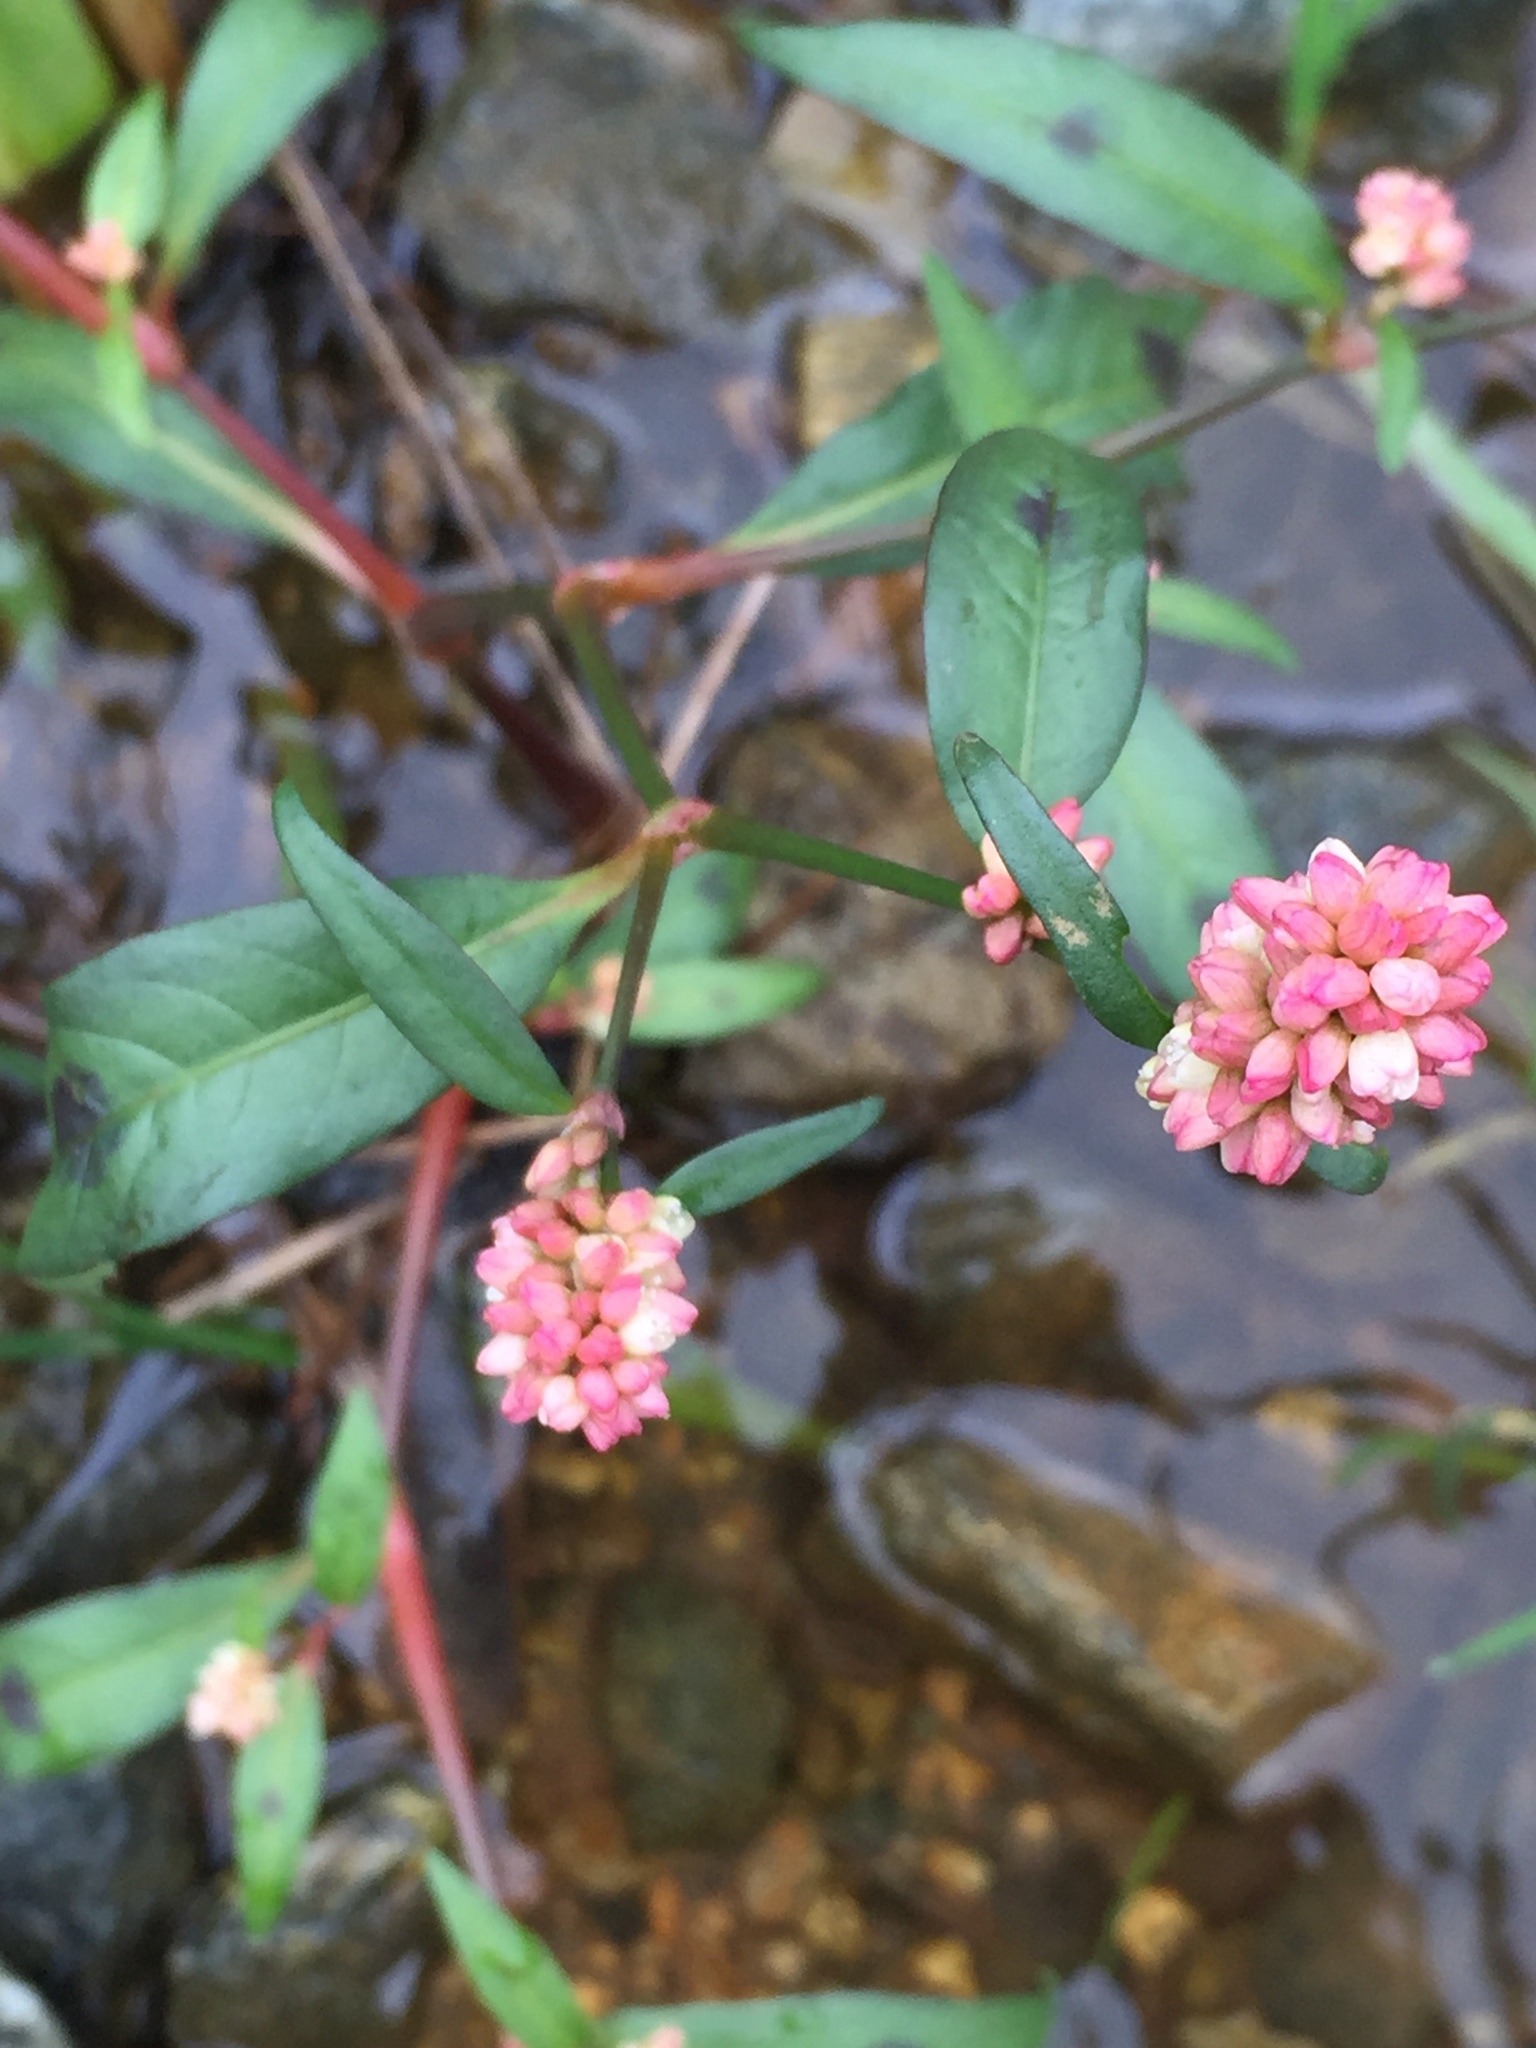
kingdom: Plantae
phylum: Tracheophyta
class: Magnoliopsida
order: Caryophyllales
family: Polygonaceae
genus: Persicaria
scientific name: Persicaria maculosa
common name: Redshank
